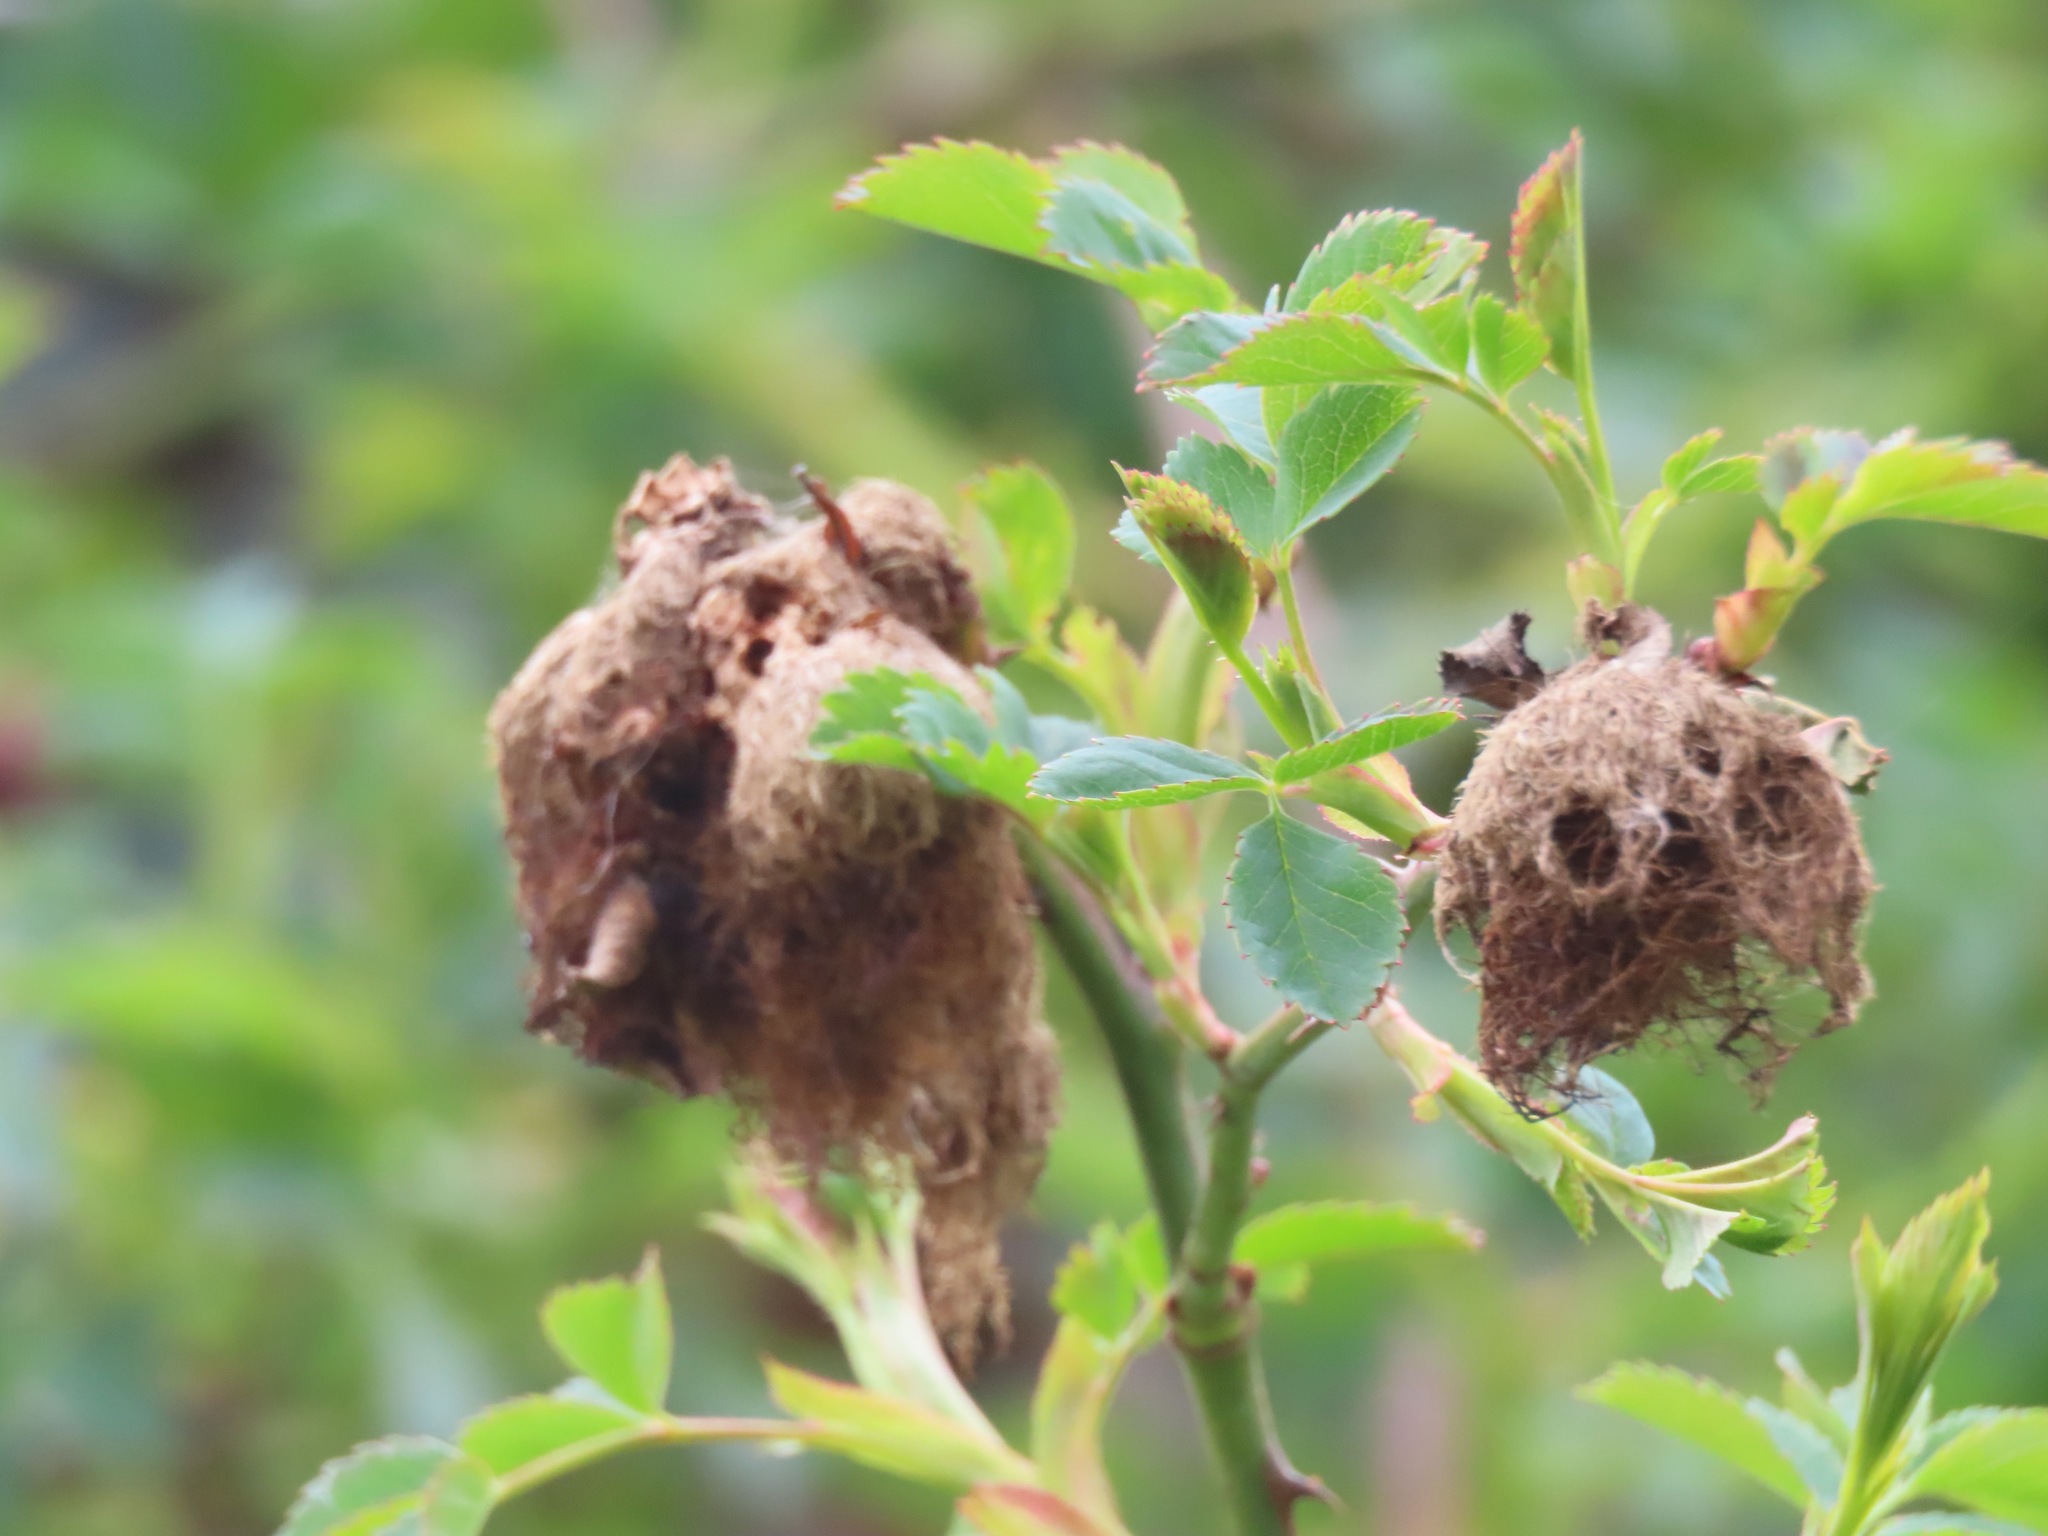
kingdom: Animalia
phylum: Arthropoda
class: Insecta
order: Hymenoptera
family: Cynipidae
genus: Diplolepis
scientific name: Diplolepis rosae
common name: Bedeguar gall
